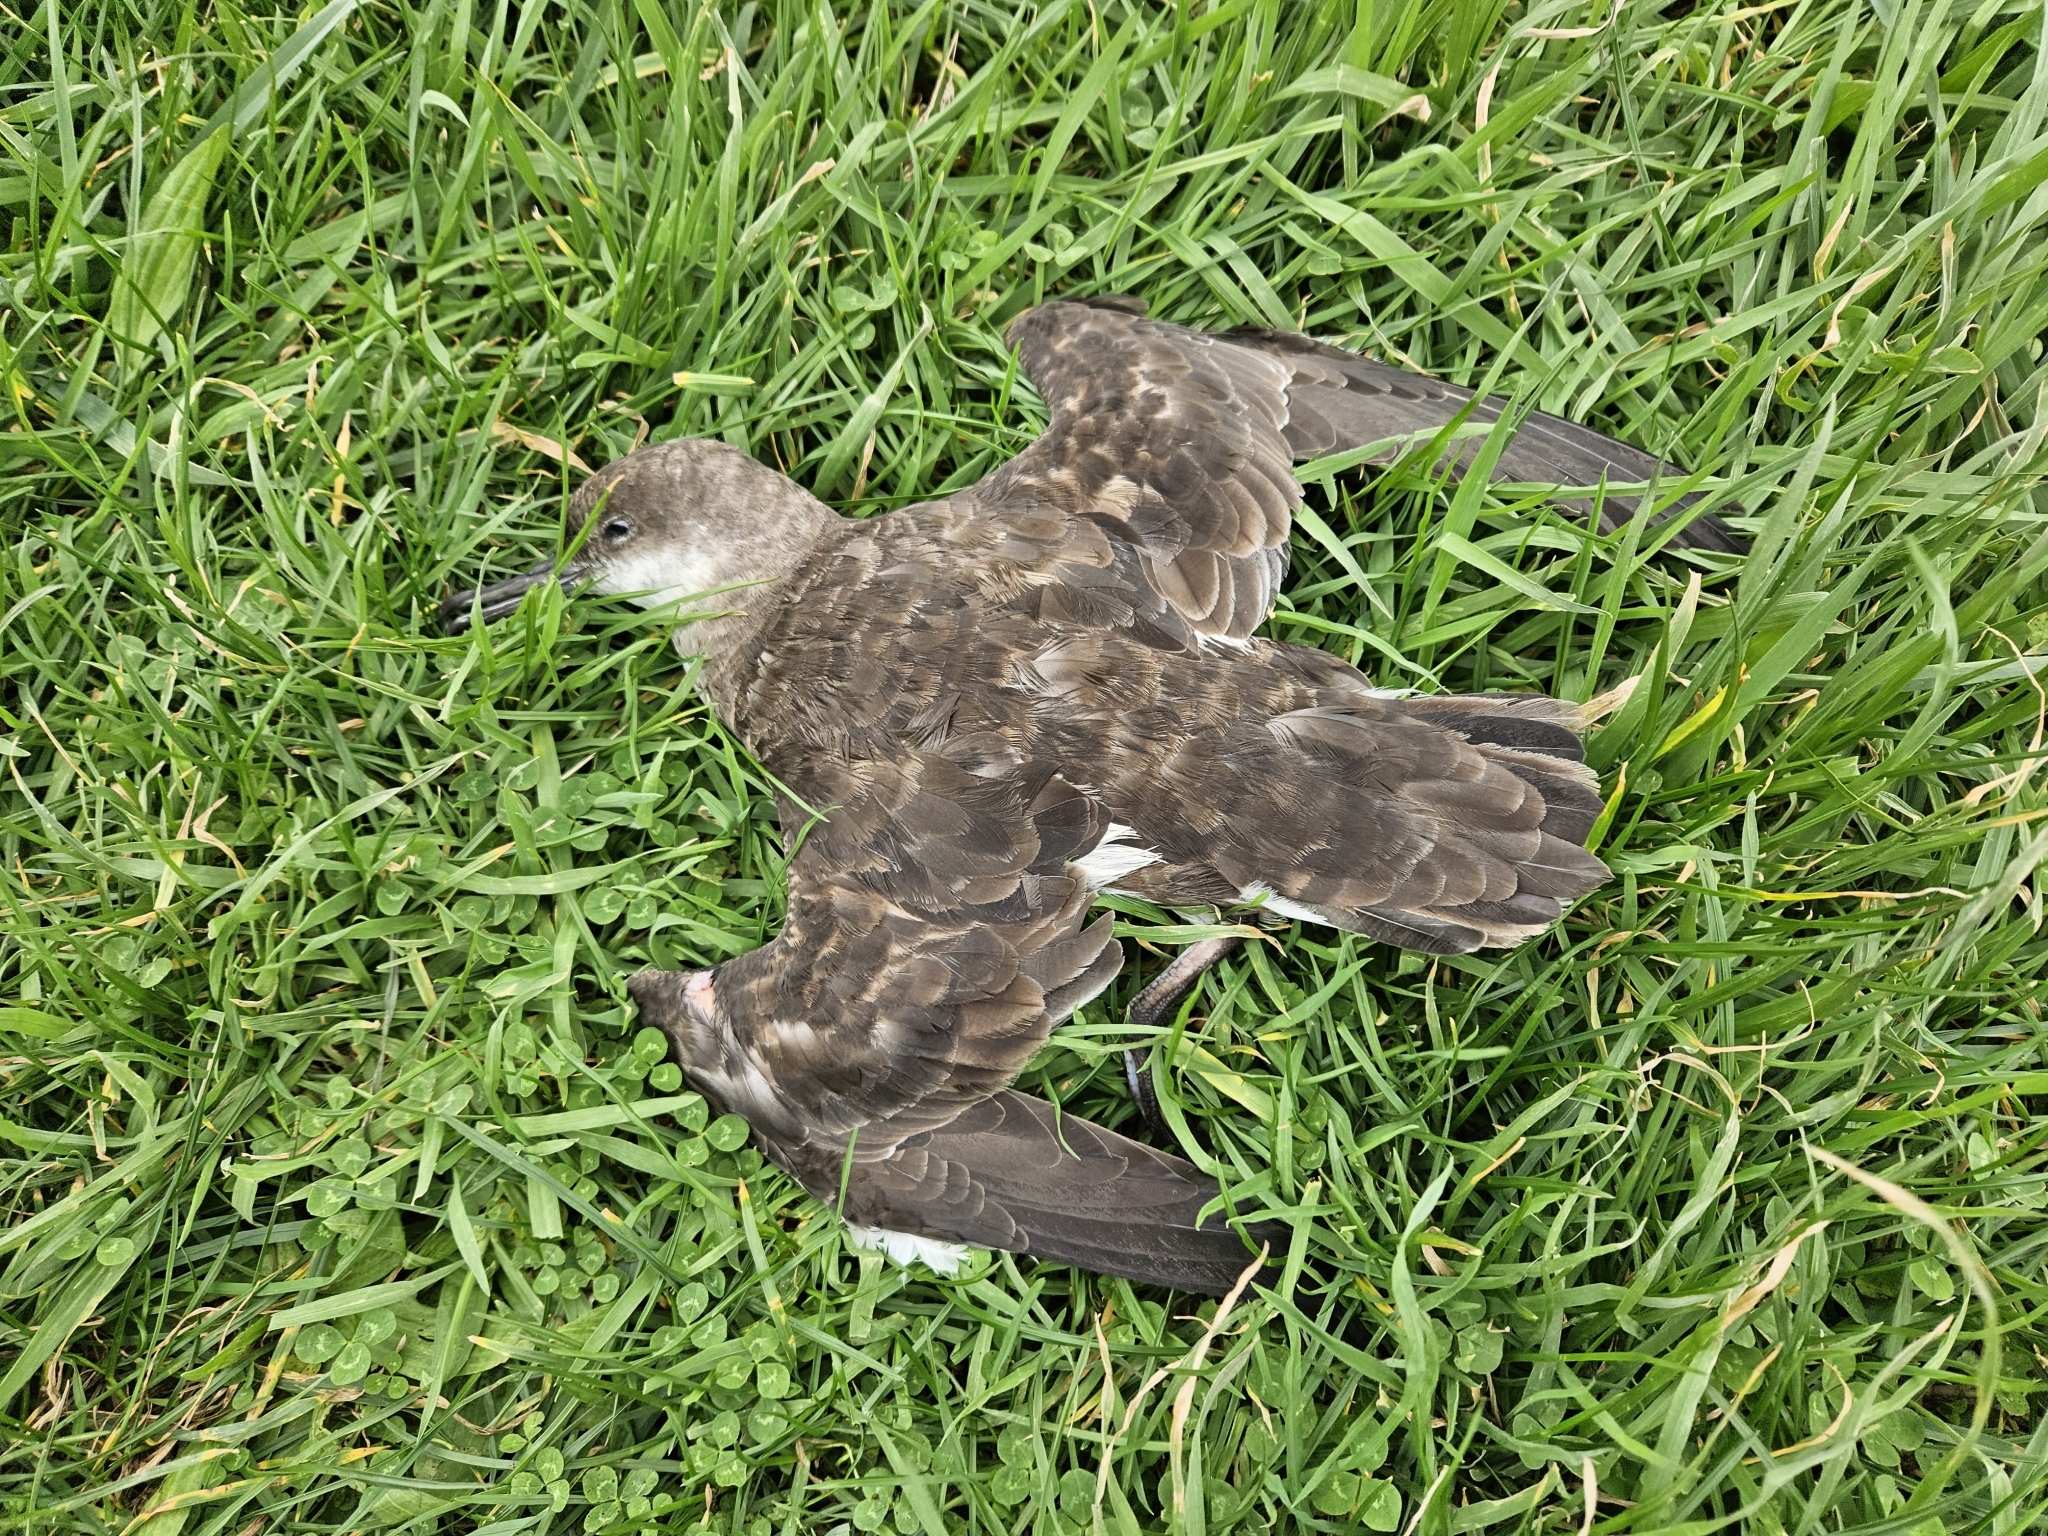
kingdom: Animalia
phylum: Chordata
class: Aves
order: Procellariiformes
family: Procellariidae
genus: Puffinus
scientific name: Puffinus gavia
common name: Fluttering shearwater
